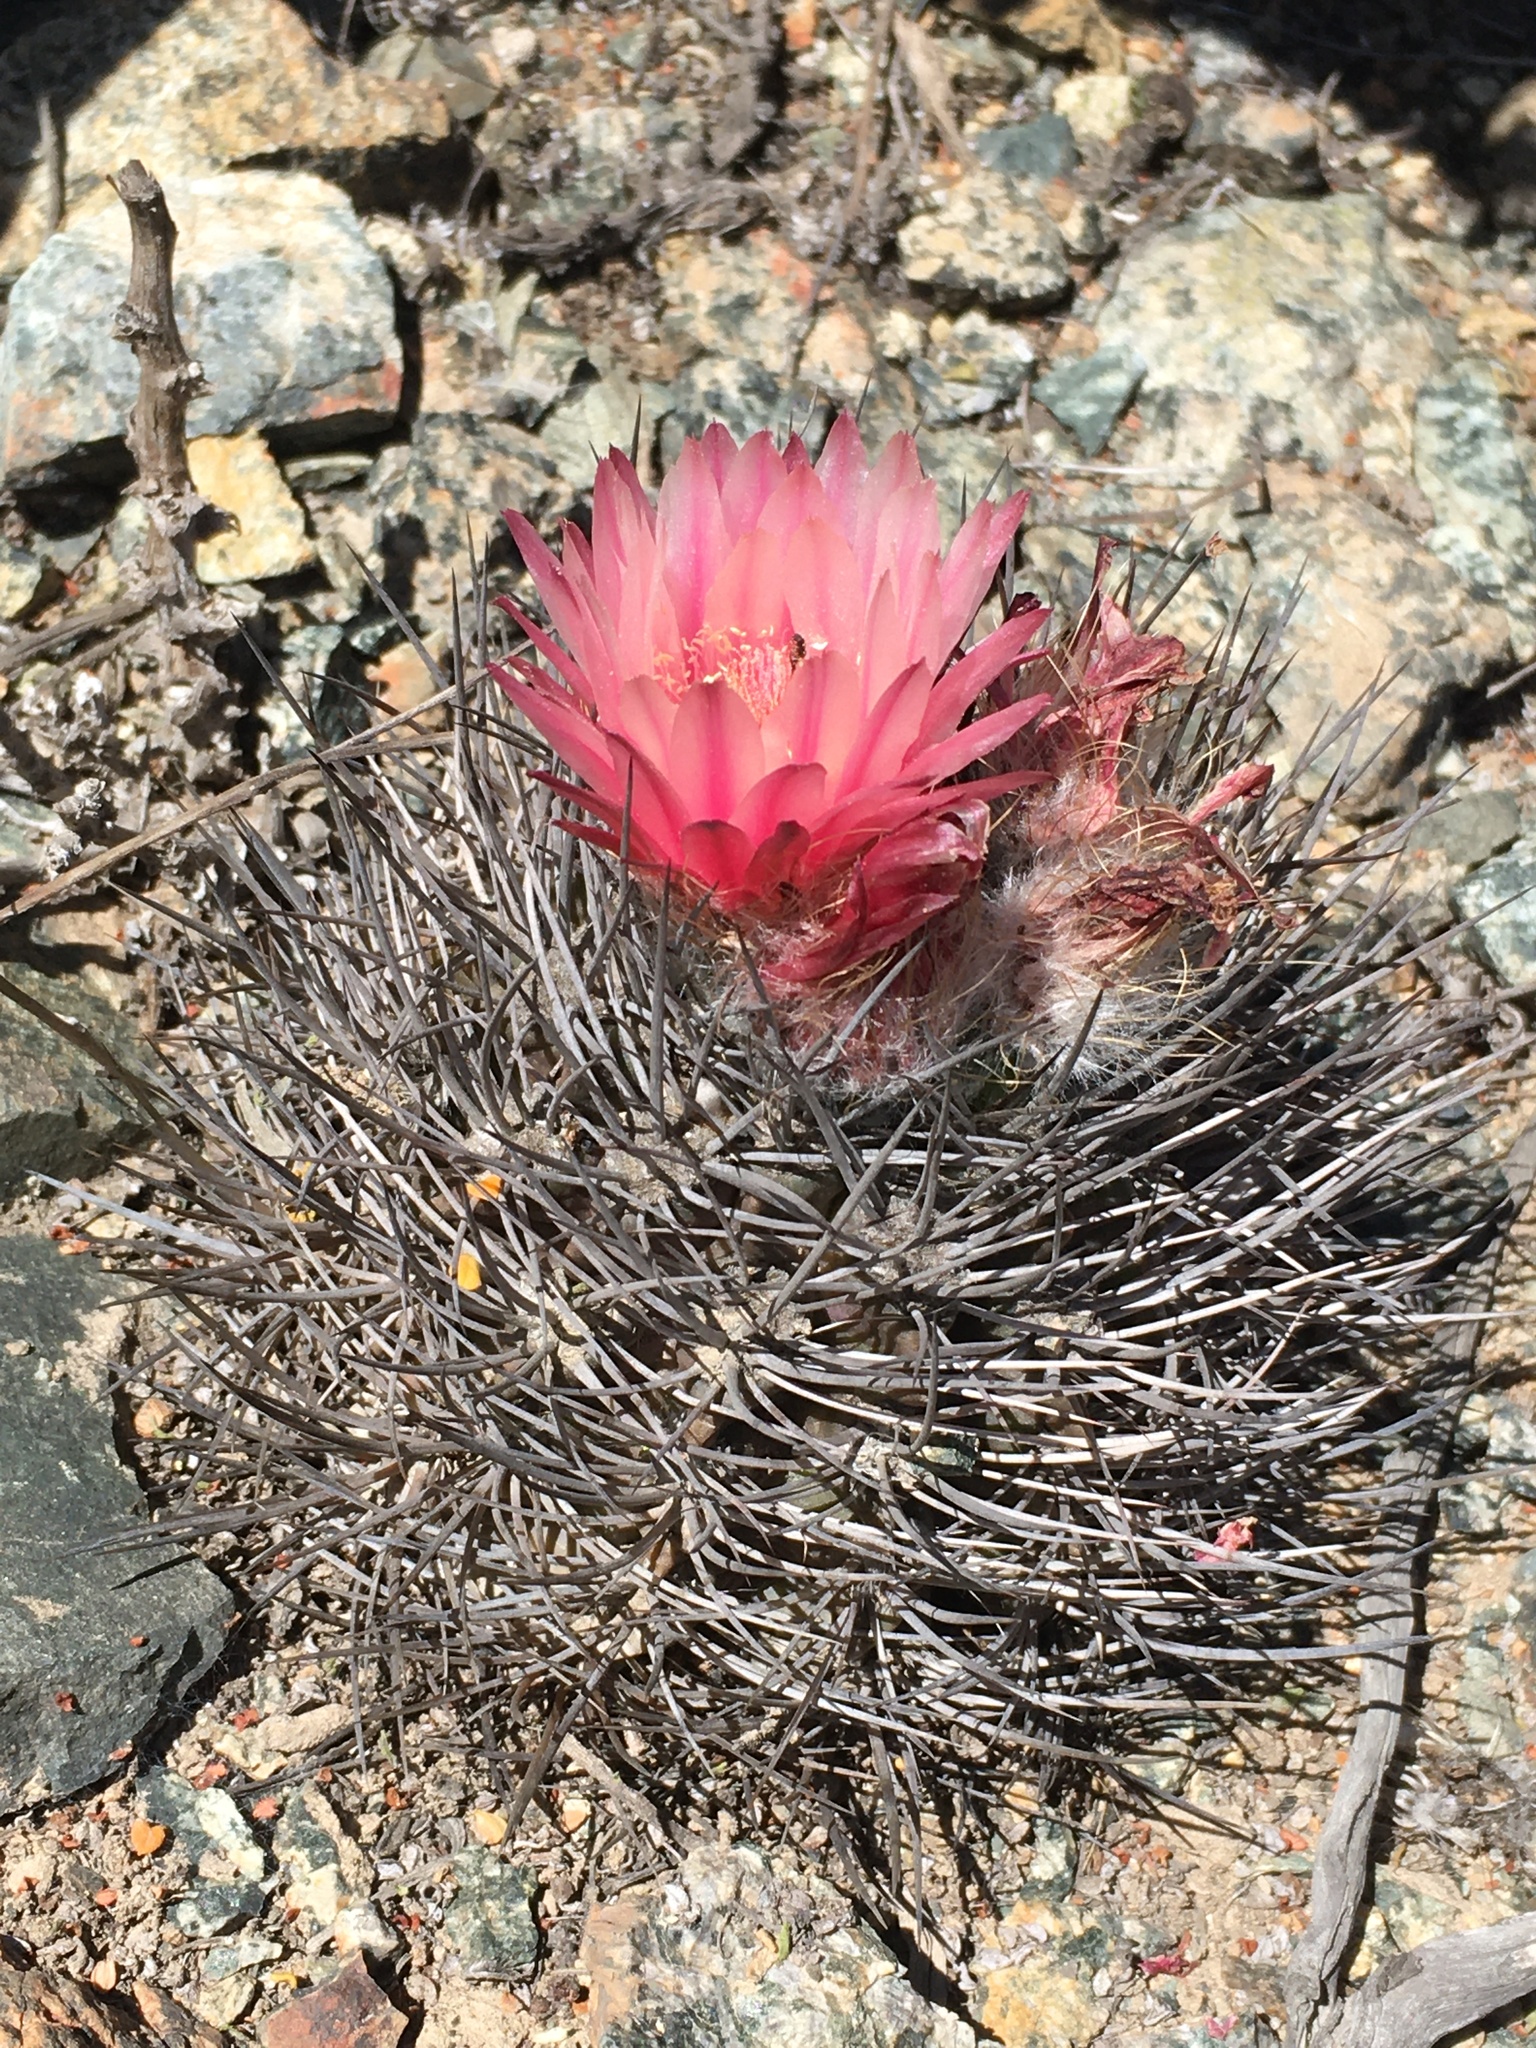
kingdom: Plantae
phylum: Tracheophyta
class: Magnoliopsida
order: Caryophyllales
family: Cactaceae
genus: Eriosyce
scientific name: Eriosyce paucicostata
